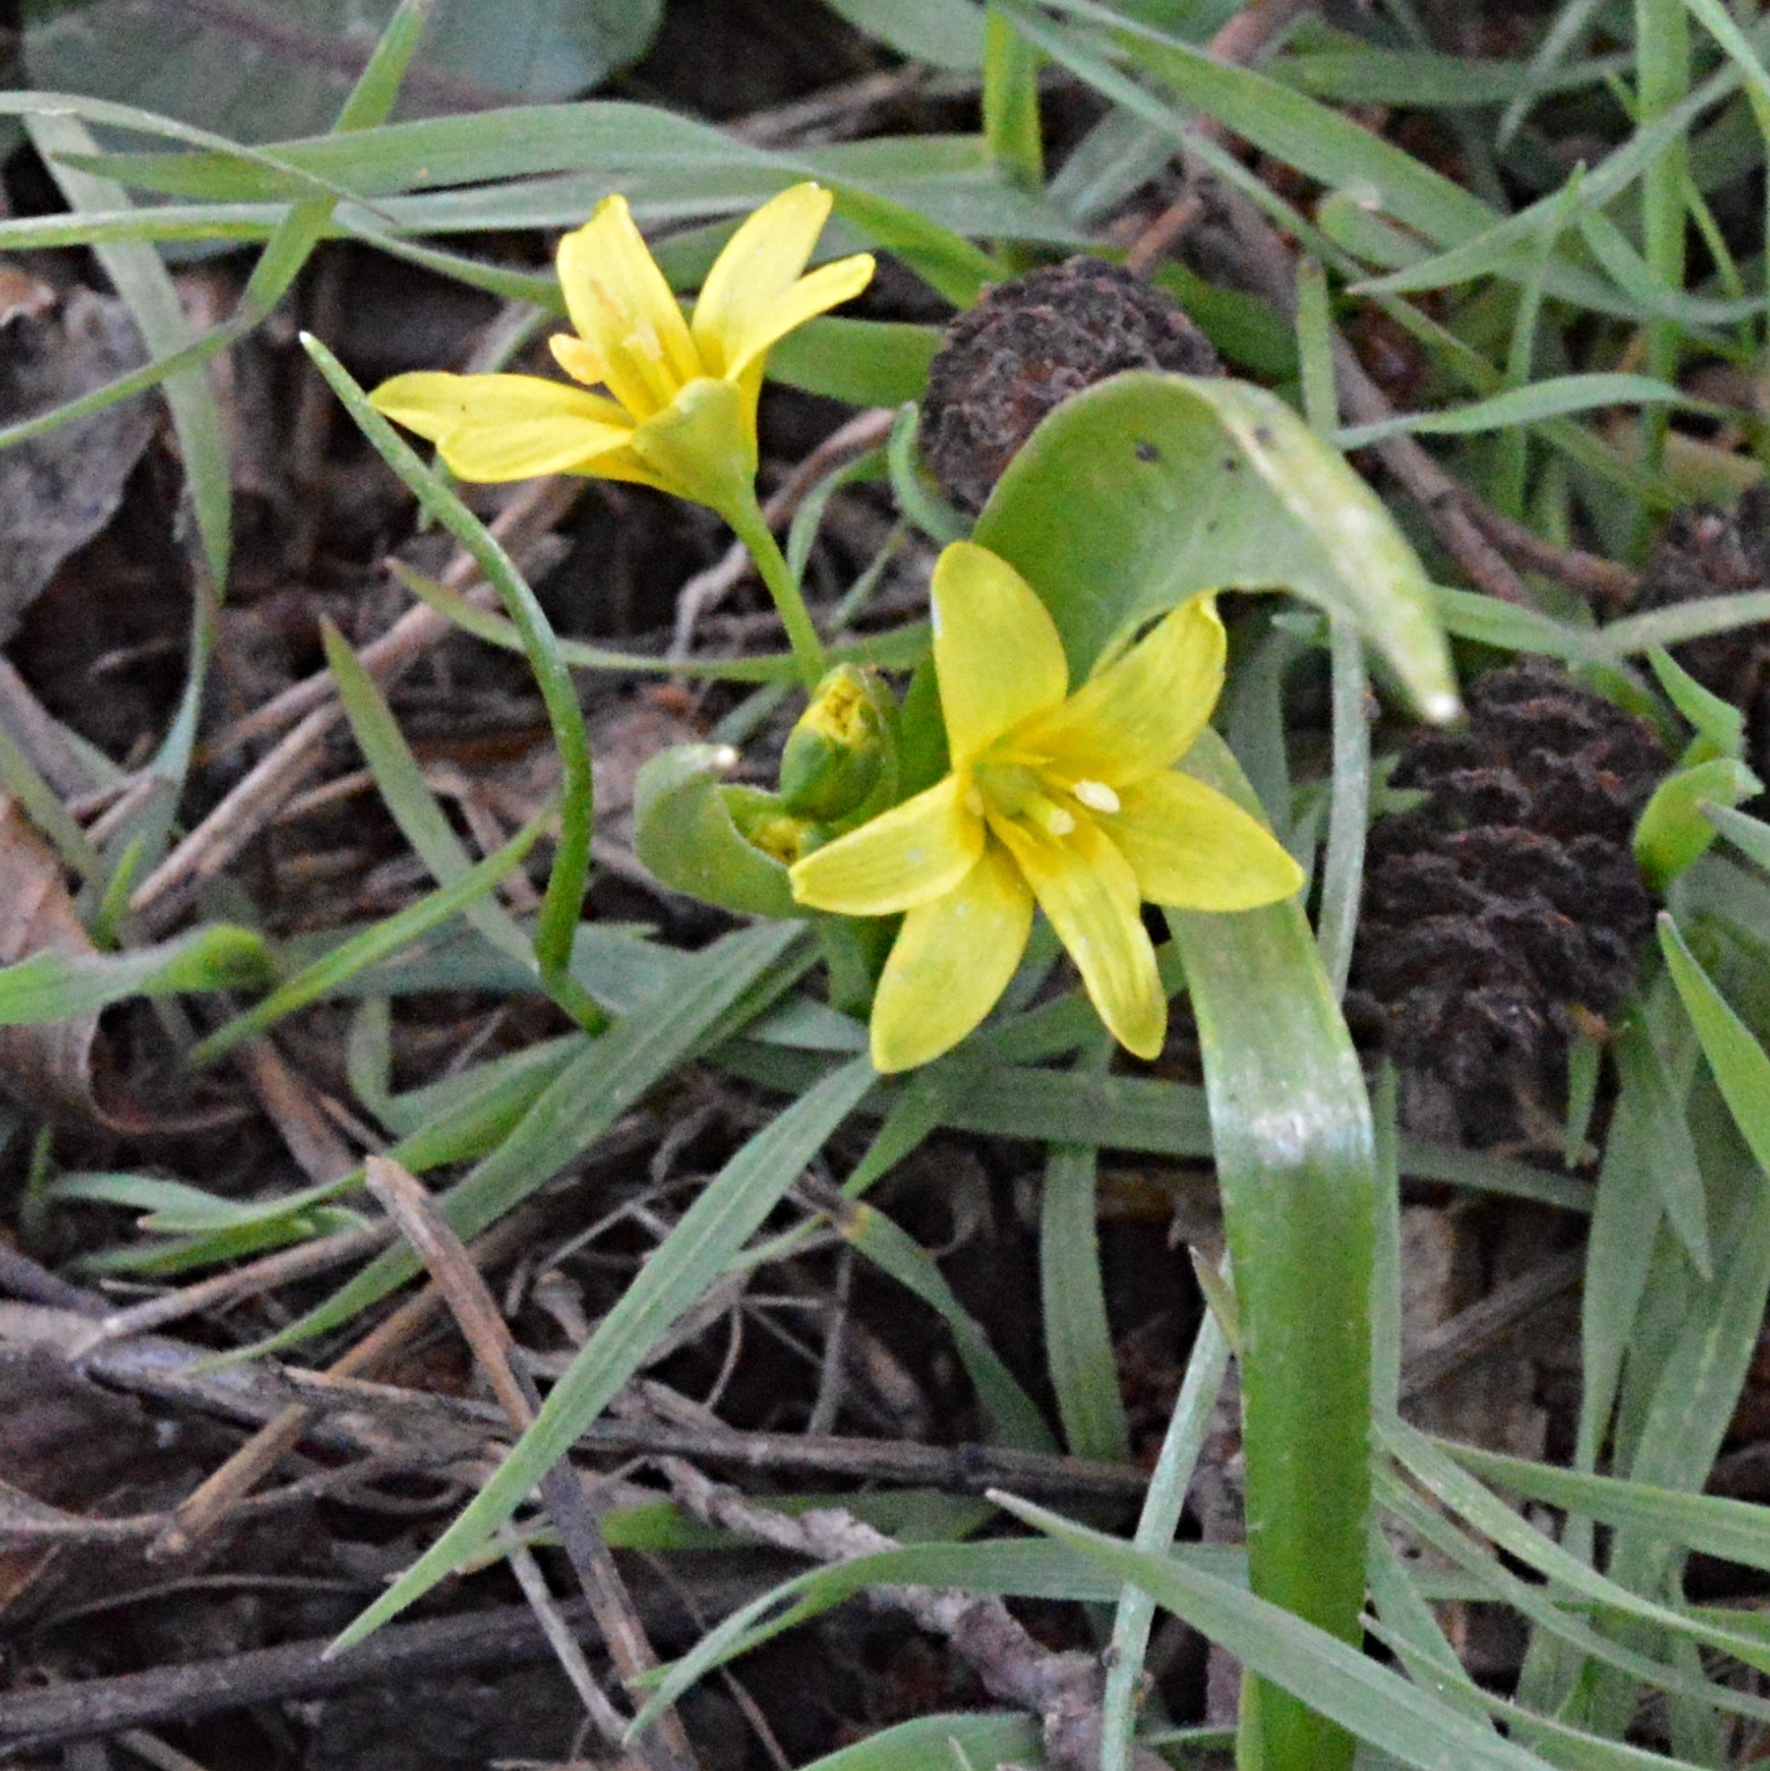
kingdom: Plantae
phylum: Tracheophyta
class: Liliopsida
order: Liliales
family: Liliaceae
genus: Gagea
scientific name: Gagea lutea
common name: Yellow star-of-bethlehem
